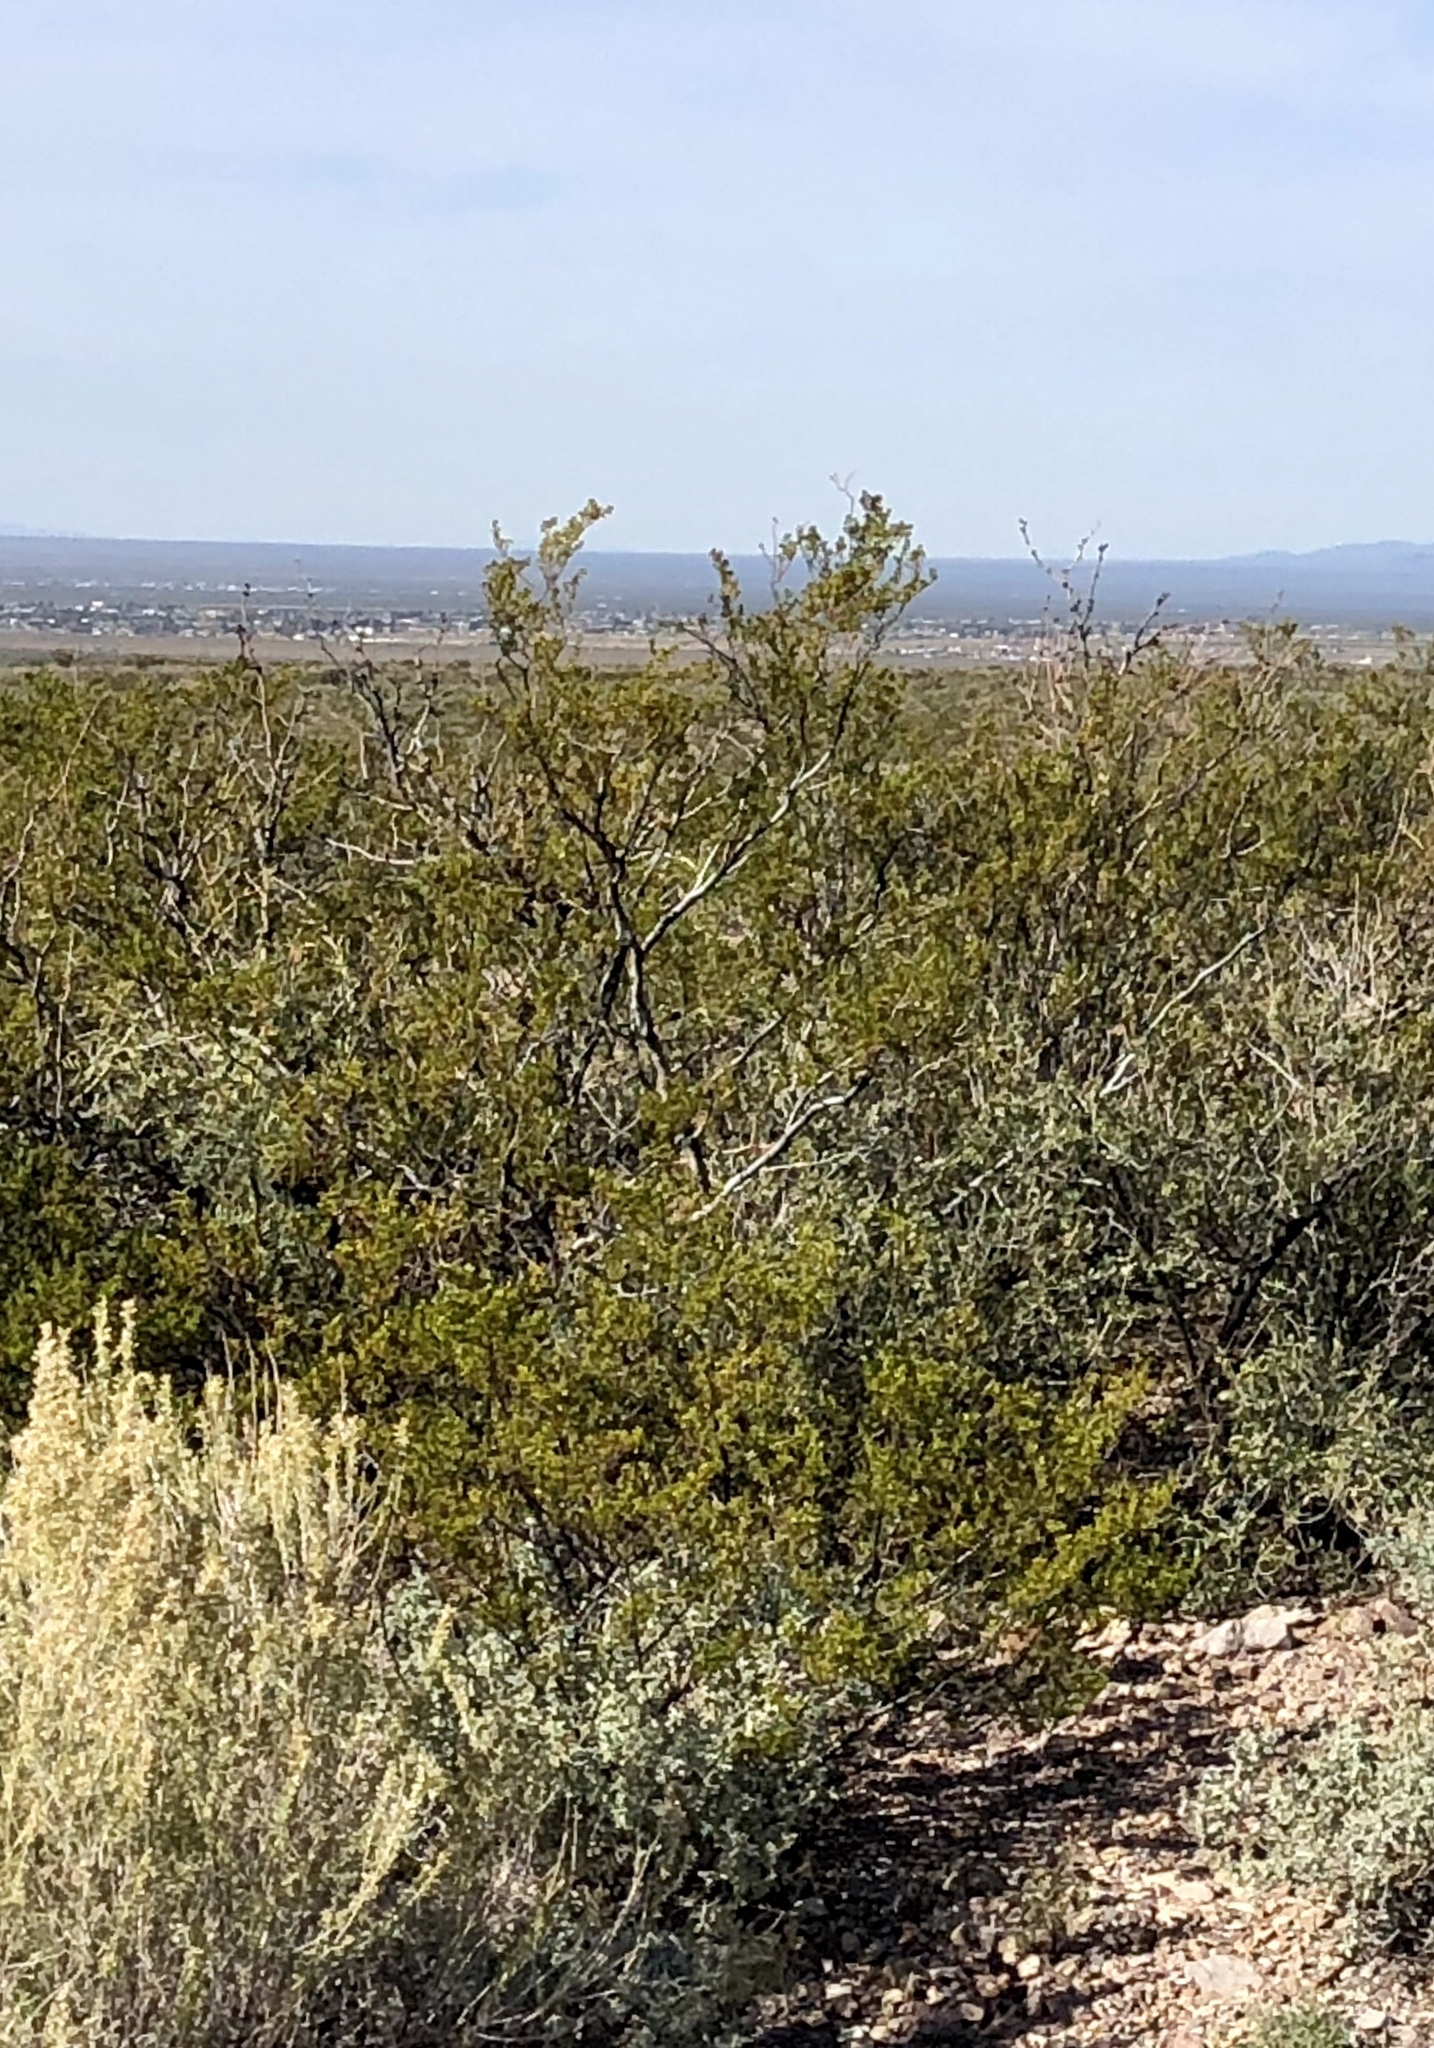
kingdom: Plantae
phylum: Tracheophyta
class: Magnoliopsida
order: Zygophyllales
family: Zygophyllaceae
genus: Larrea
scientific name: Larrea tridentata
